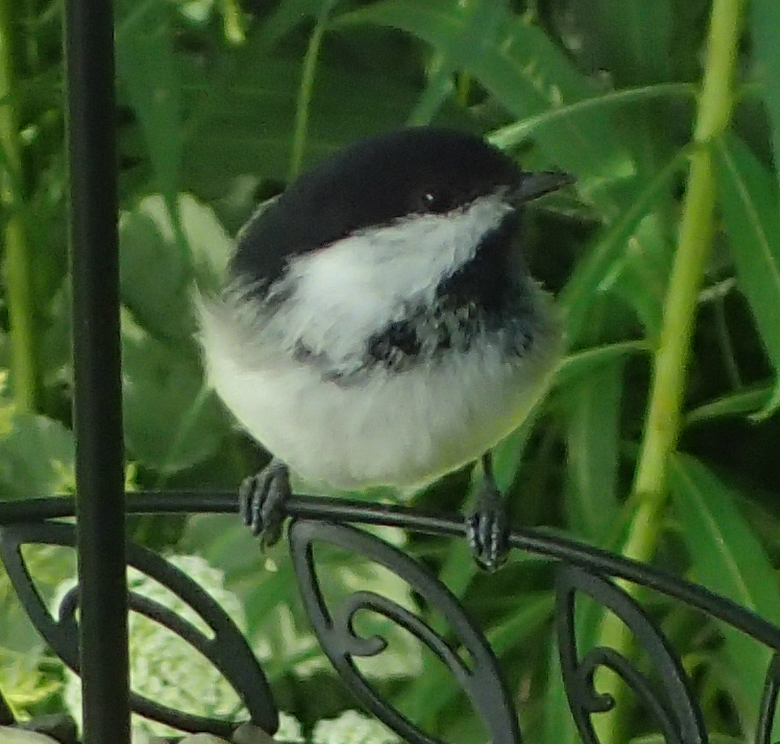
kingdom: Animalia
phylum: Chordata
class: Aves
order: Passeriformes
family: Paridae
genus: Poecile
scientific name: Poecile atricapillus
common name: Black-capped chickadee
